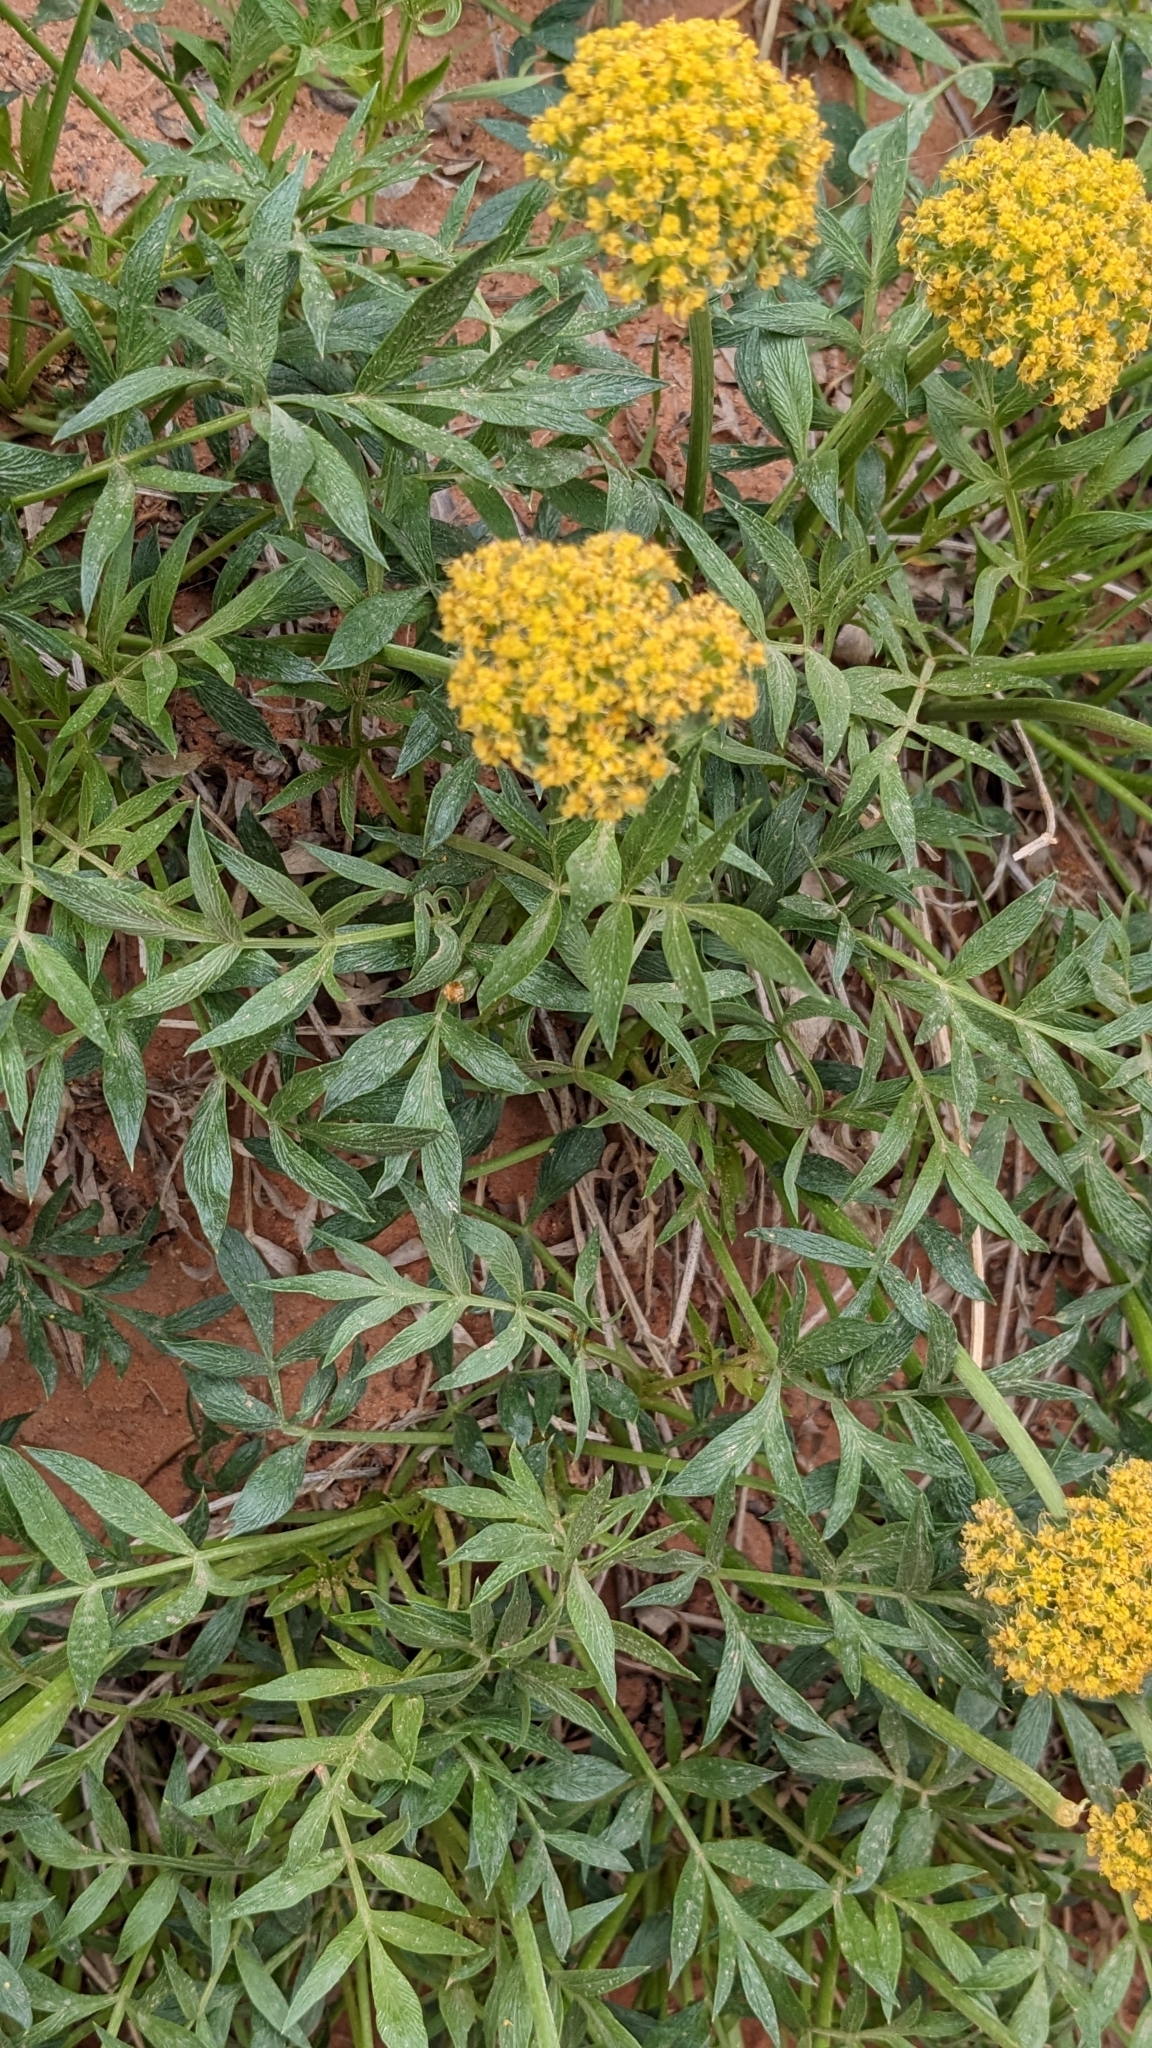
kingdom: Plantae
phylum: Tracheophyta
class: Magnoliopsida
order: Apiales
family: Apiaceae
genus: Lomatium
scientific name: Lomatium latilobum
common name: Canyonlands lomatium
